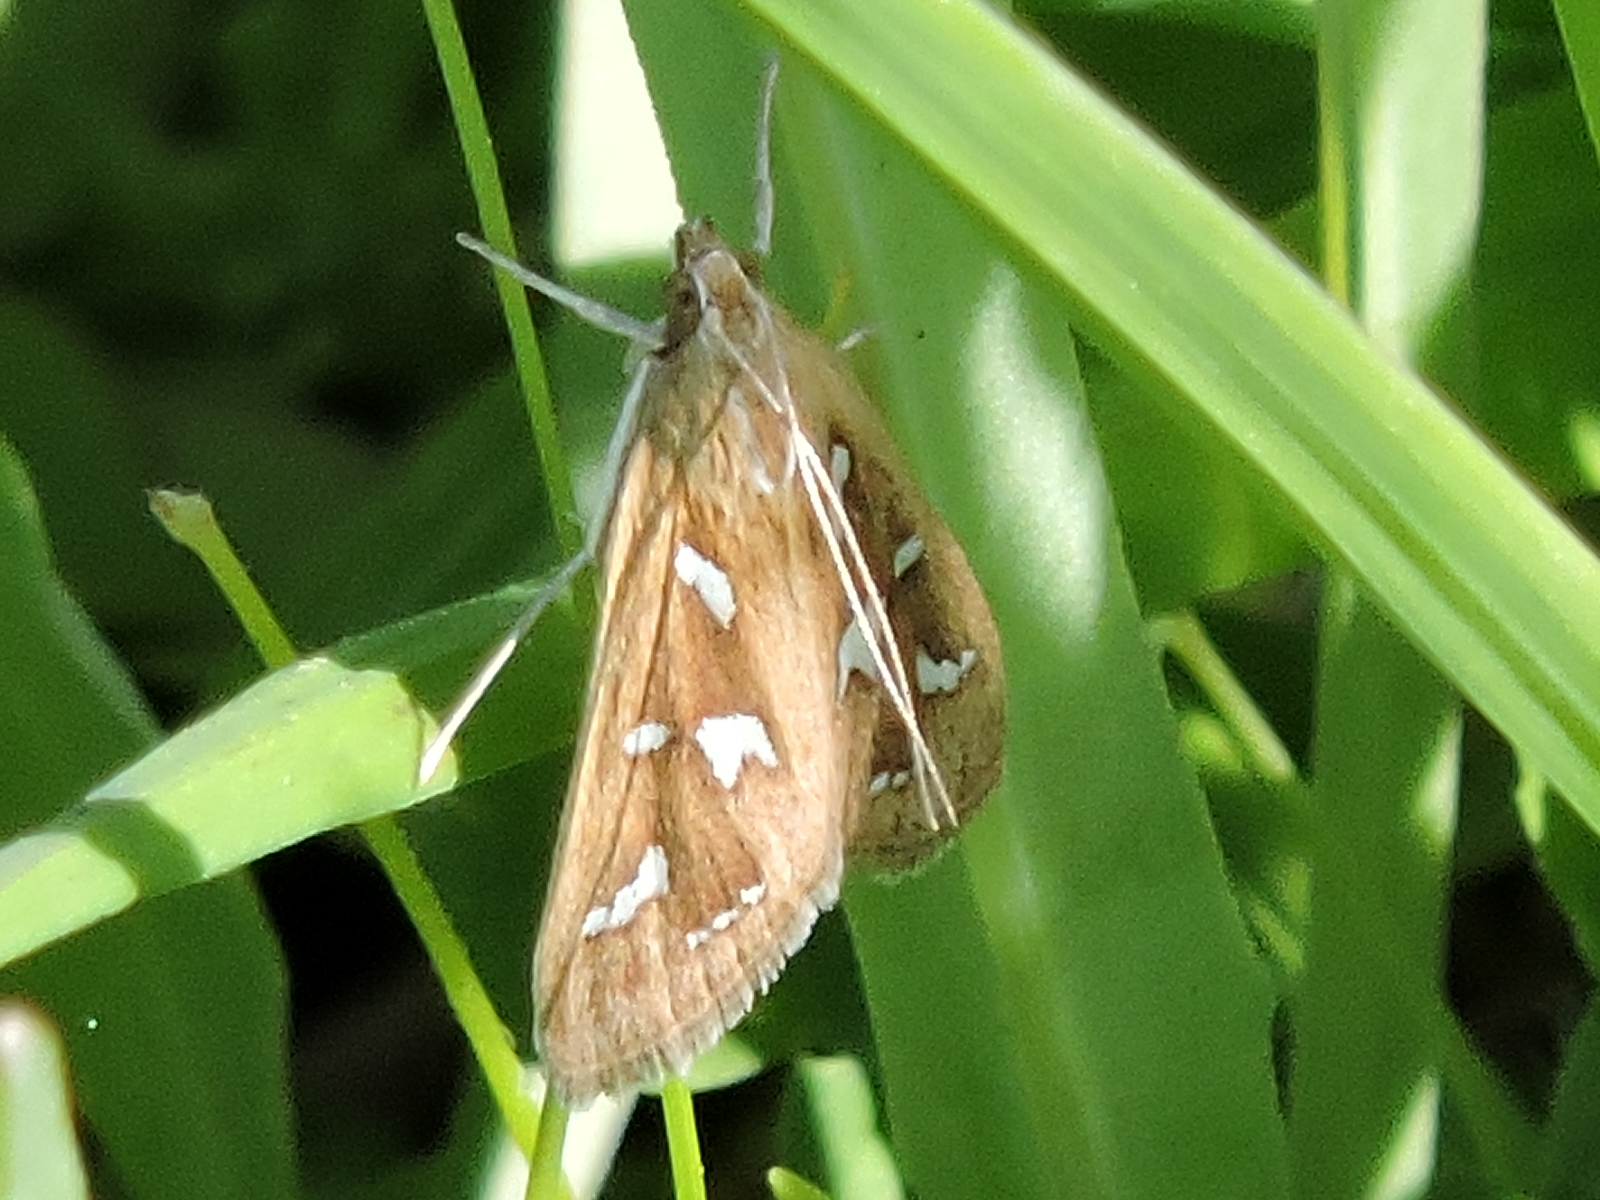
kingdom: Animalia
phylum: Arthropoda
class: Insecta
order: Lepidoptera
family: Crambidae
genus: Diastictis
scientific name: Diastictis fracturalis
